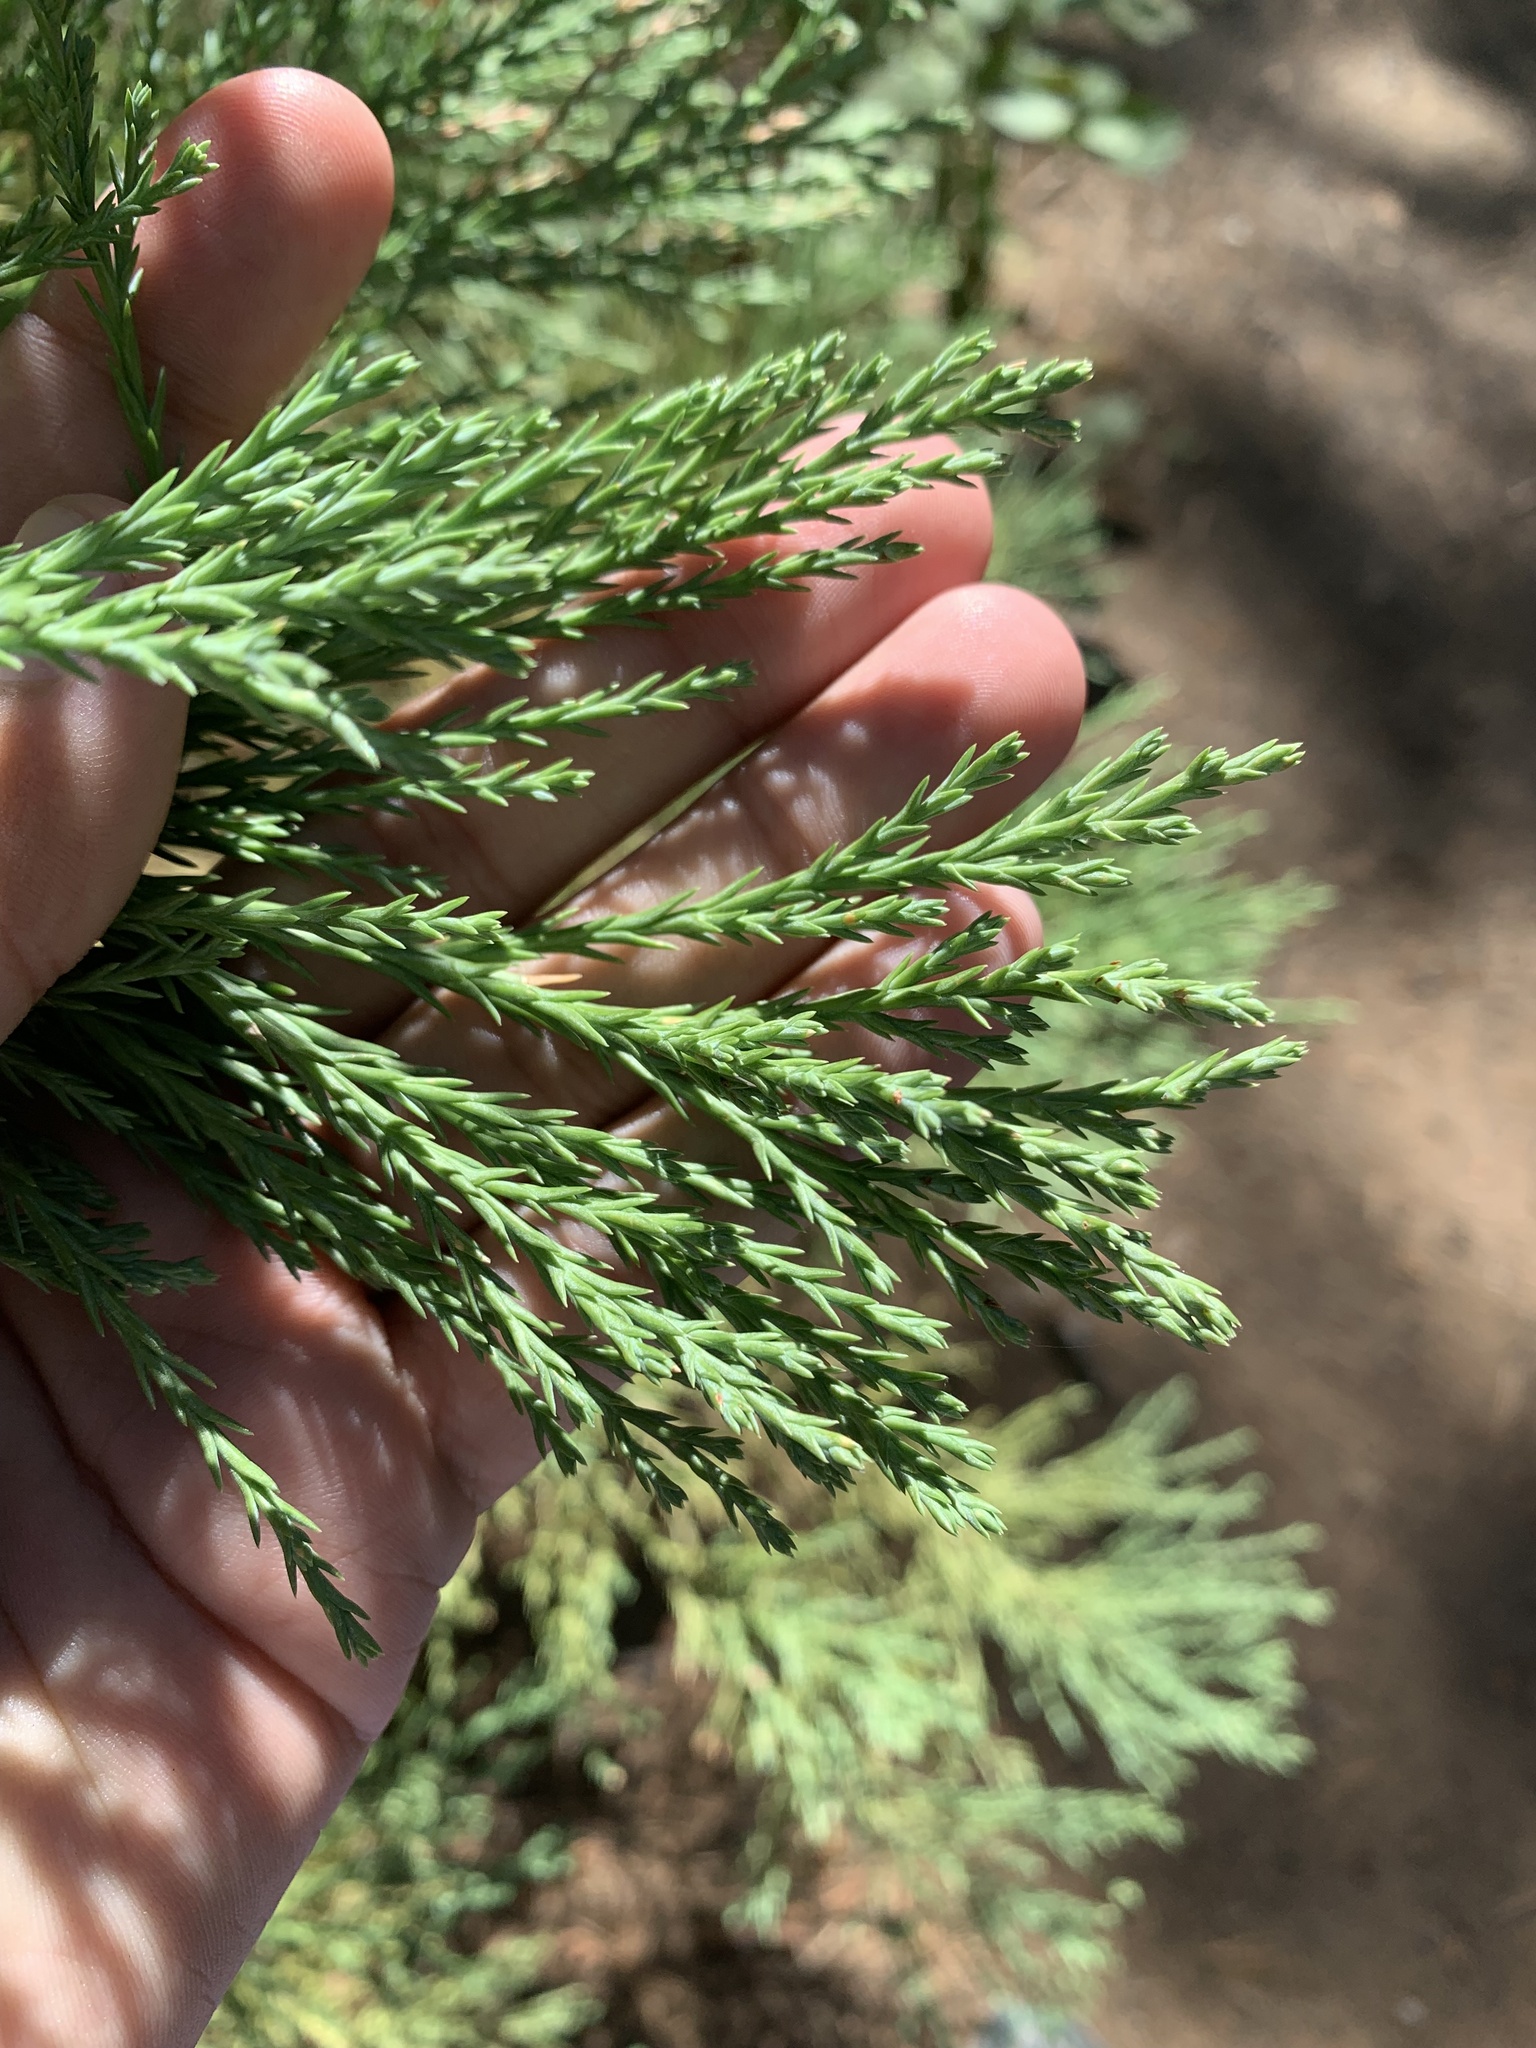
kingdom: Plantae
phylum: Tracheophyta
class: Pinopsida
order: Pinales
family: Cupressaceae
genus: Sequoiadendron
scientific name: Sequoiadendron giganteum
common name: Wellingtonia
